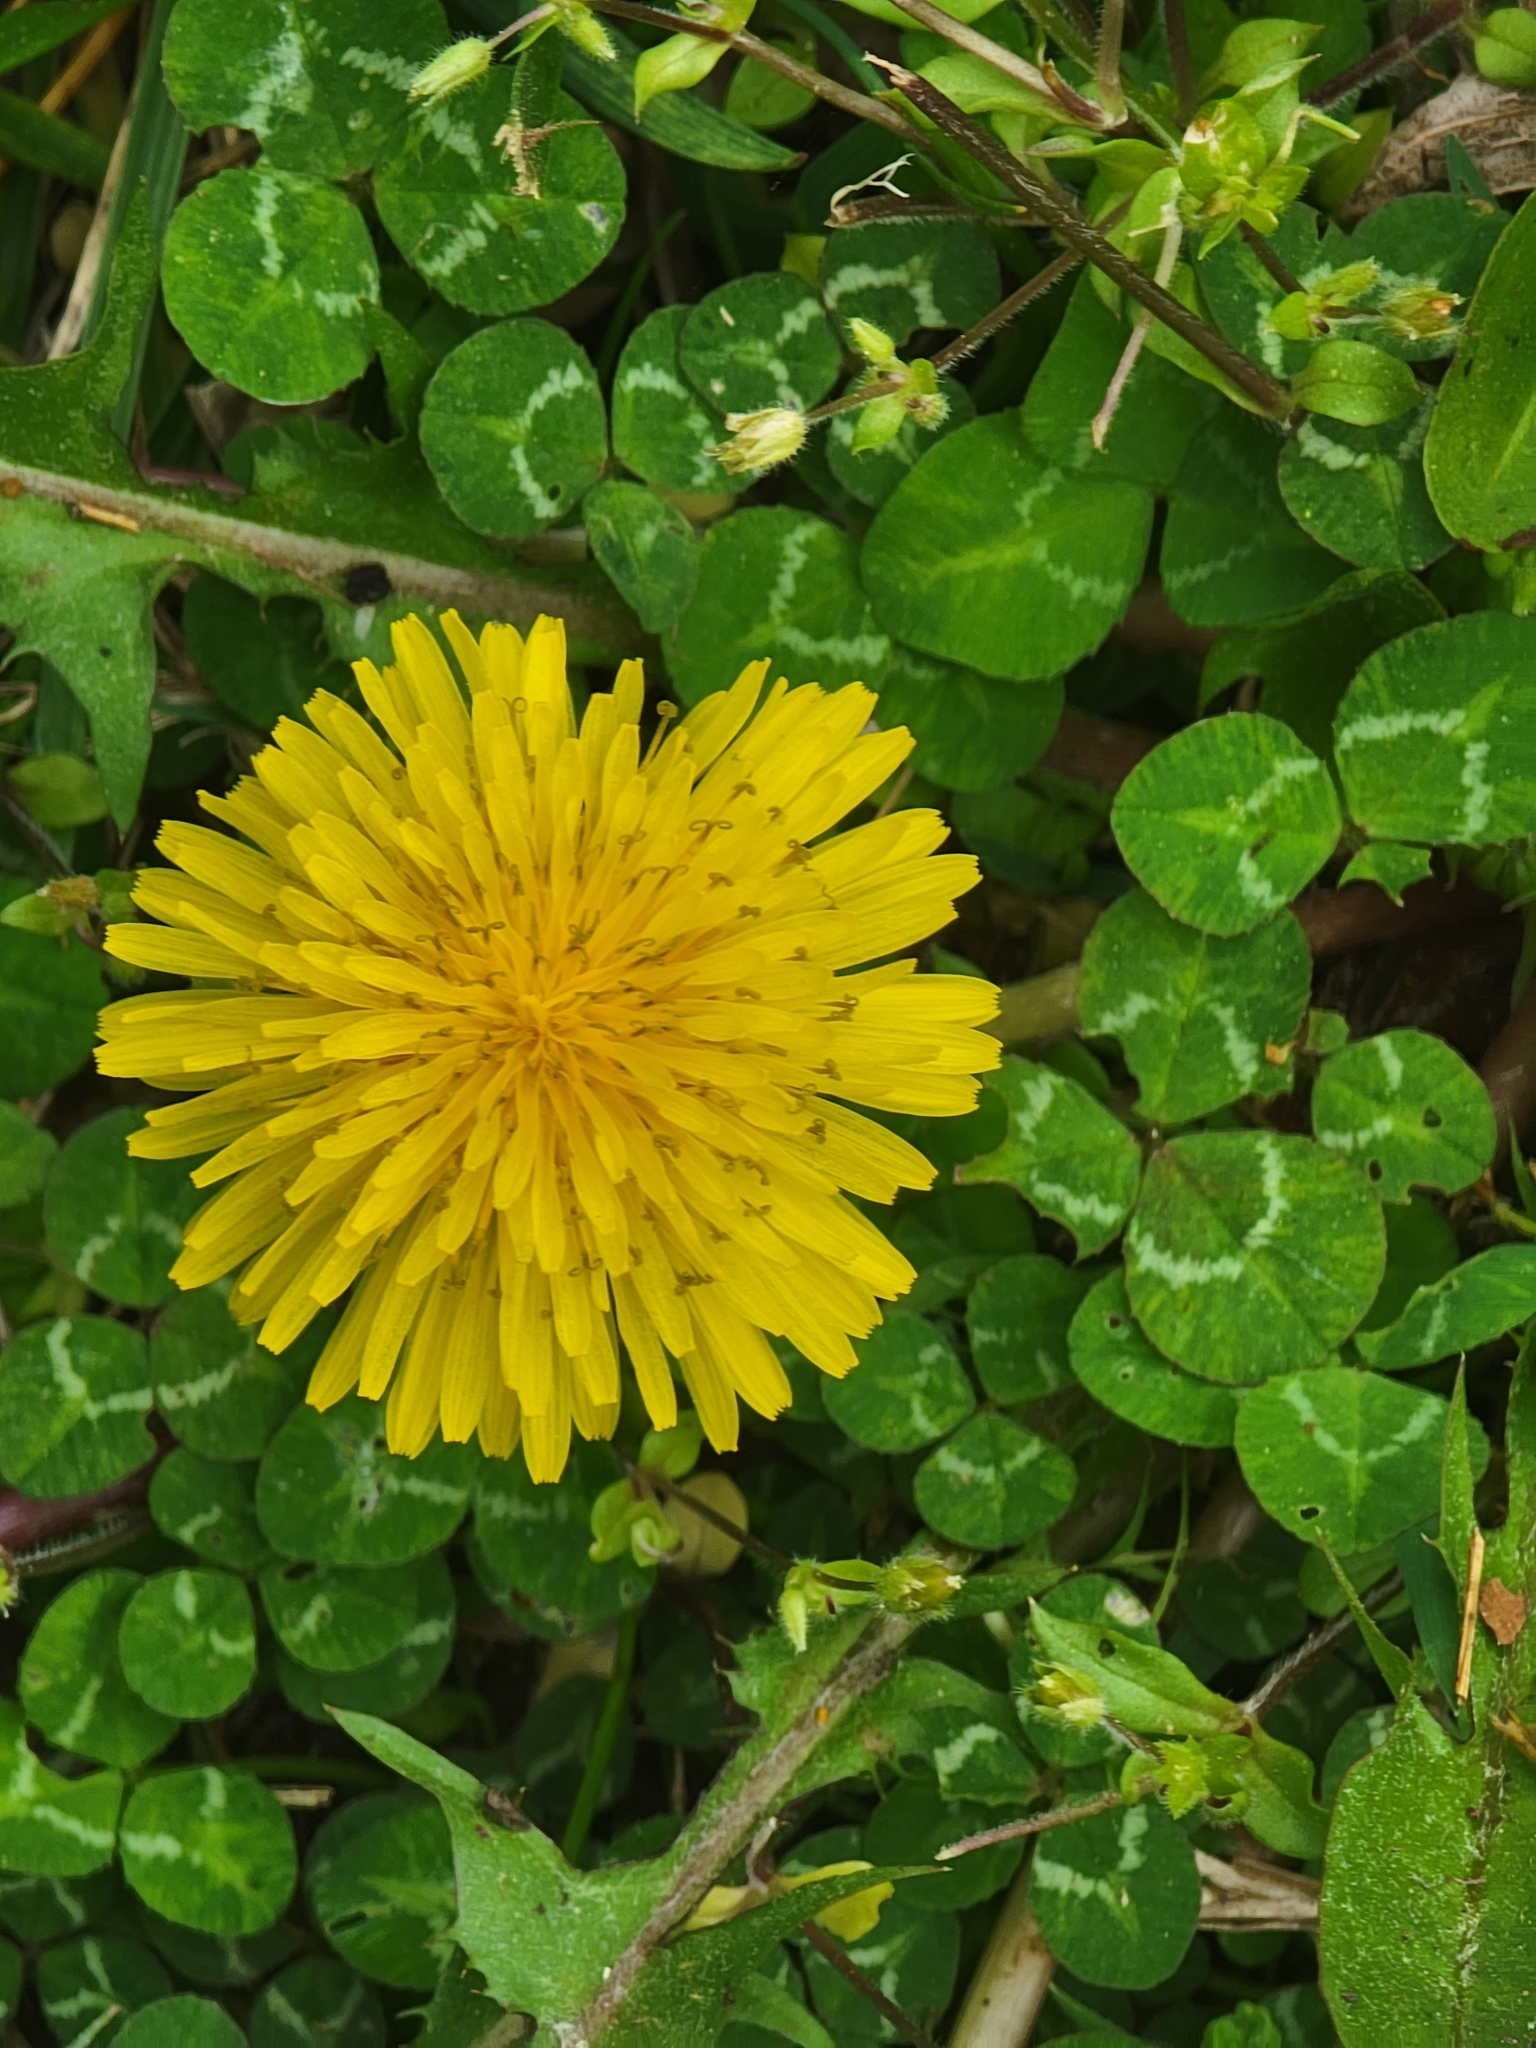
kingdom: Plantae
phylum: Tracheophyta
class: Magnoliopsida
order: Asterales
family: Asteraceae
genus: Taraxacum
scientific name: Taraxacum
